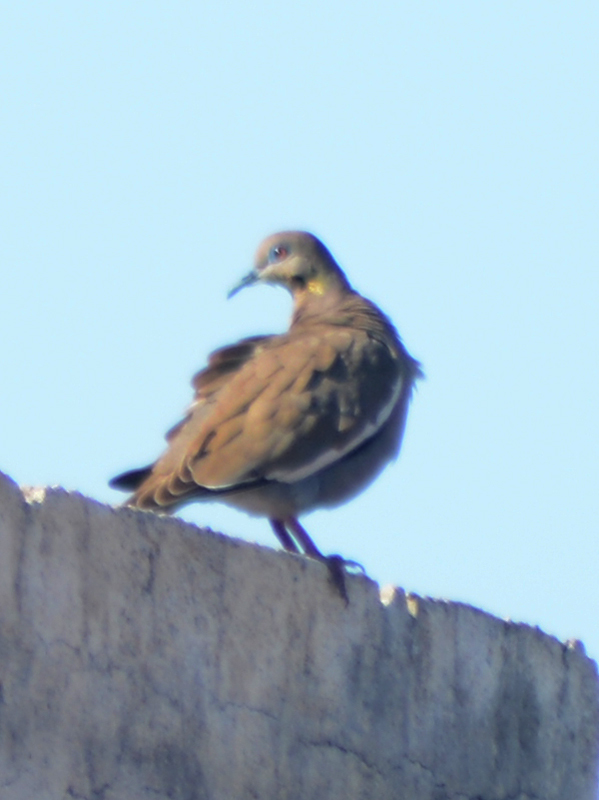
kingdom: Animalia
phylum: Chordata
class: Aves
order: Columbiformes
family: Columbidae
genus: Zenaida
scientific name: Zenaida asiatica
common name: White-winged dove
